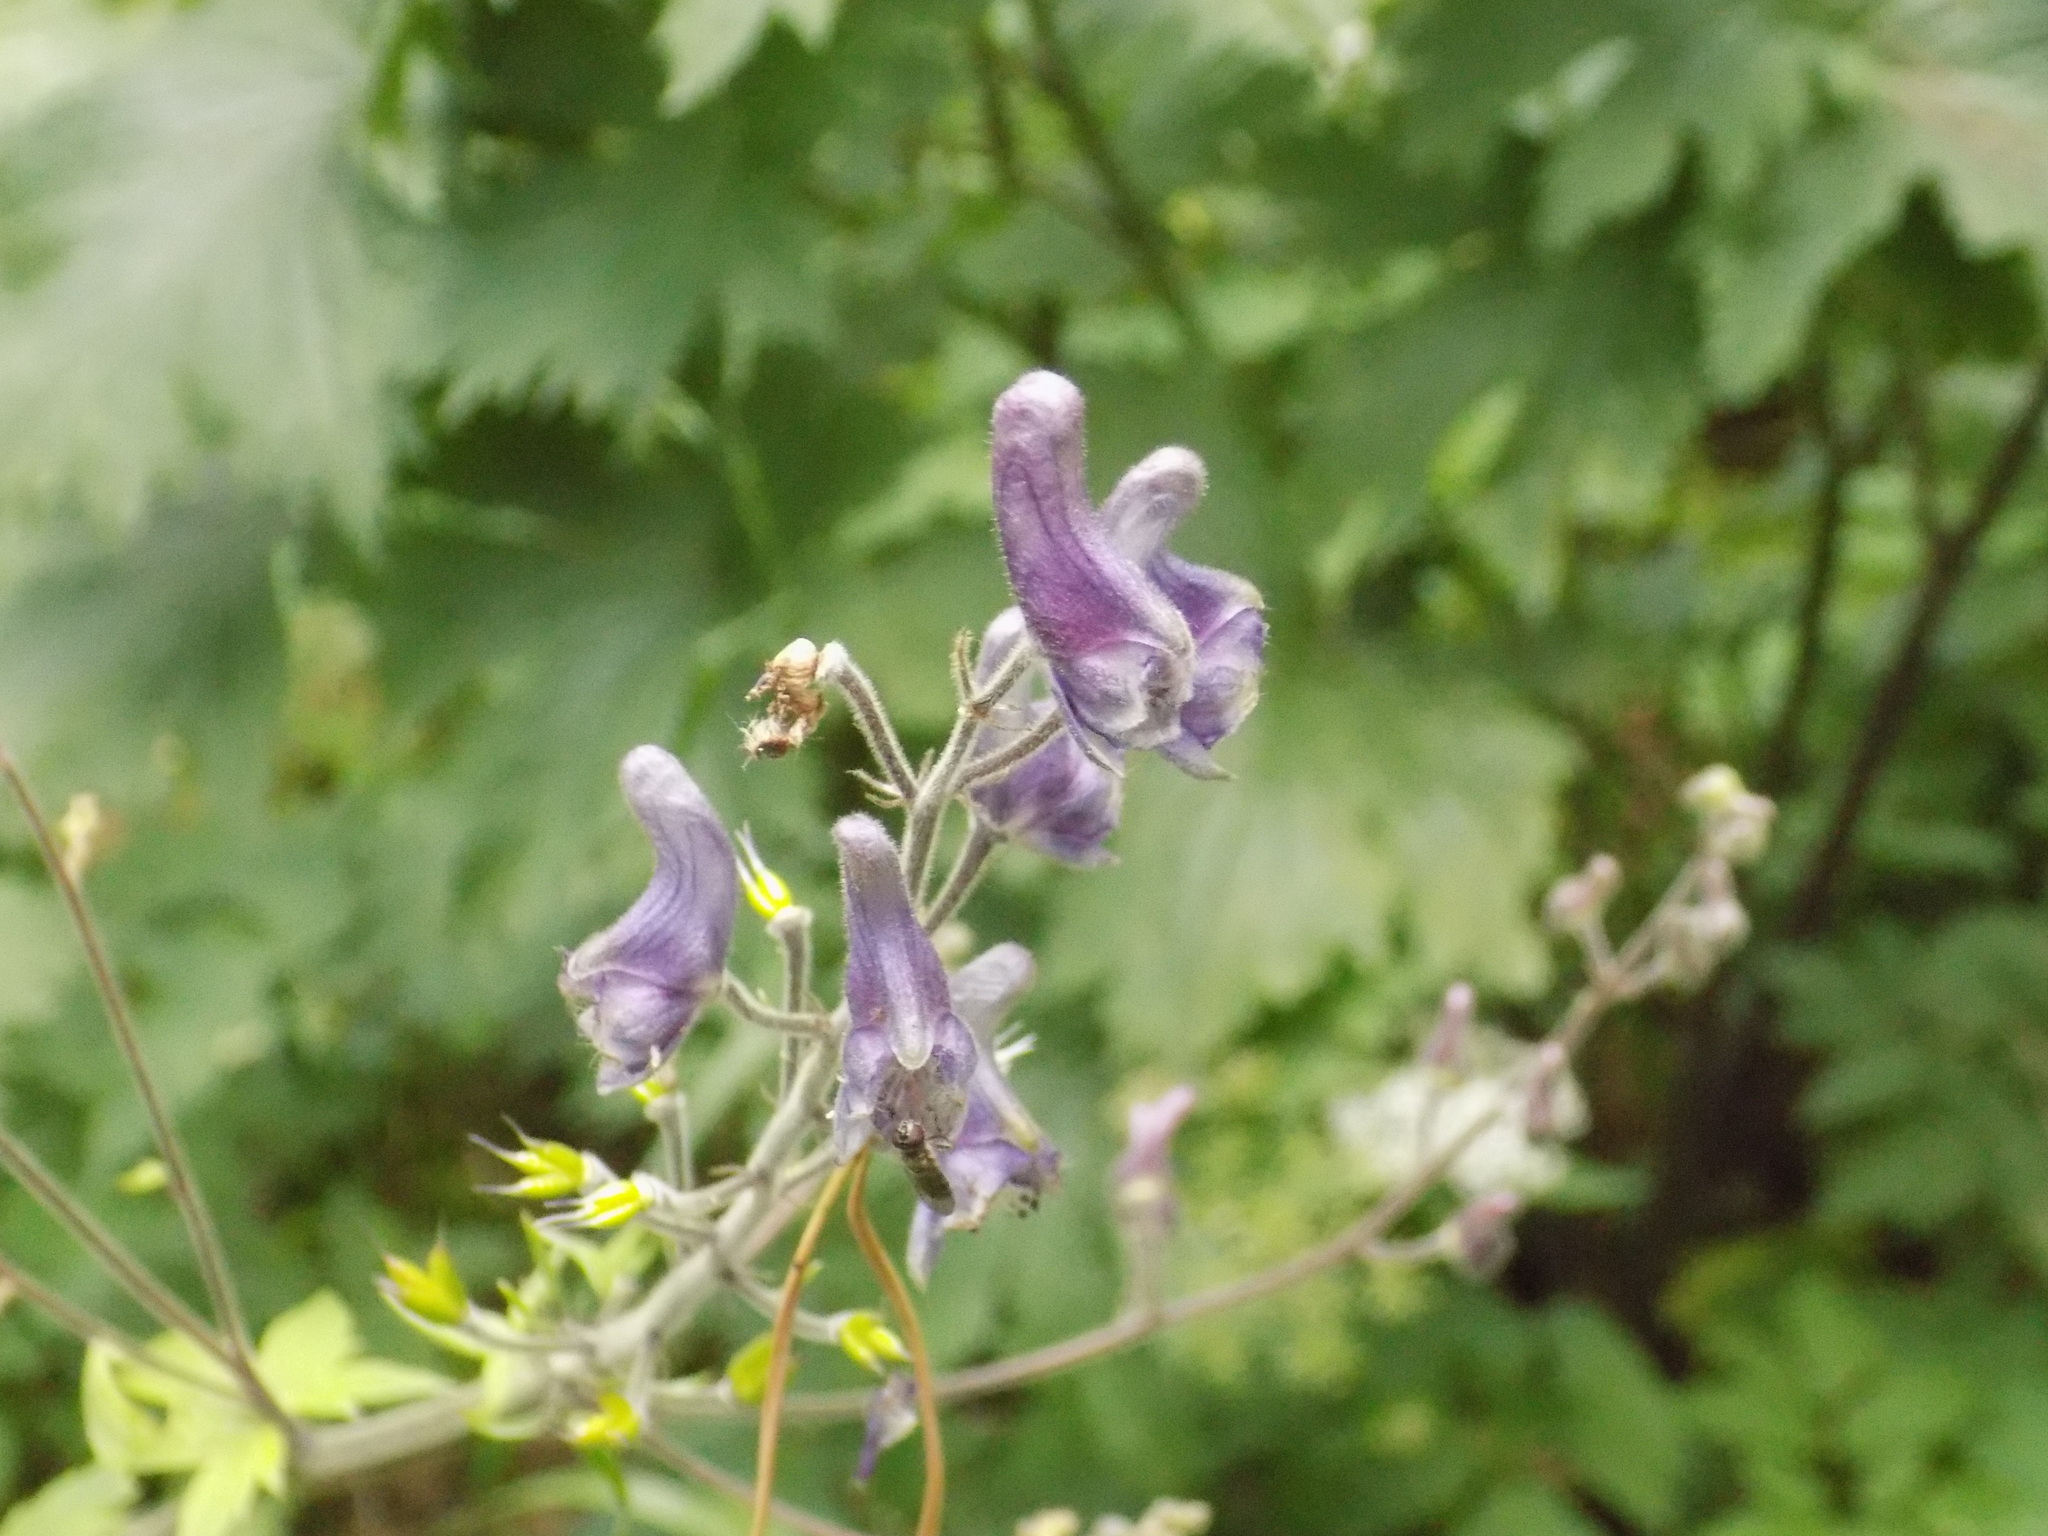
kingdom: Plantae
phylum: Tracheophyta
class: Magnoliopsida
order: Ranunculales
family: Ranunculaceae
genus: Aconitum
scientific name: Aconitum septentrionale
